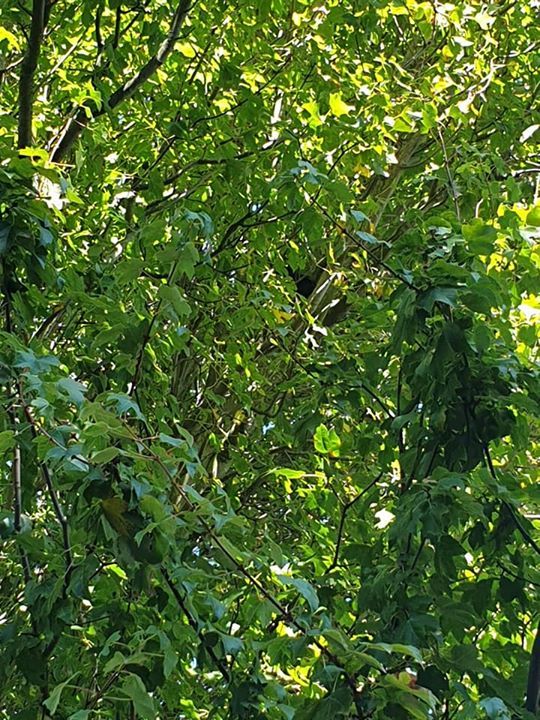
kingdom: Animalia
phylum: Chordata
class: Aves
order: Passeriformes
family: Turdidae
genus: Turdus
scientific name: Turdus merula
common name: Common blackbird
